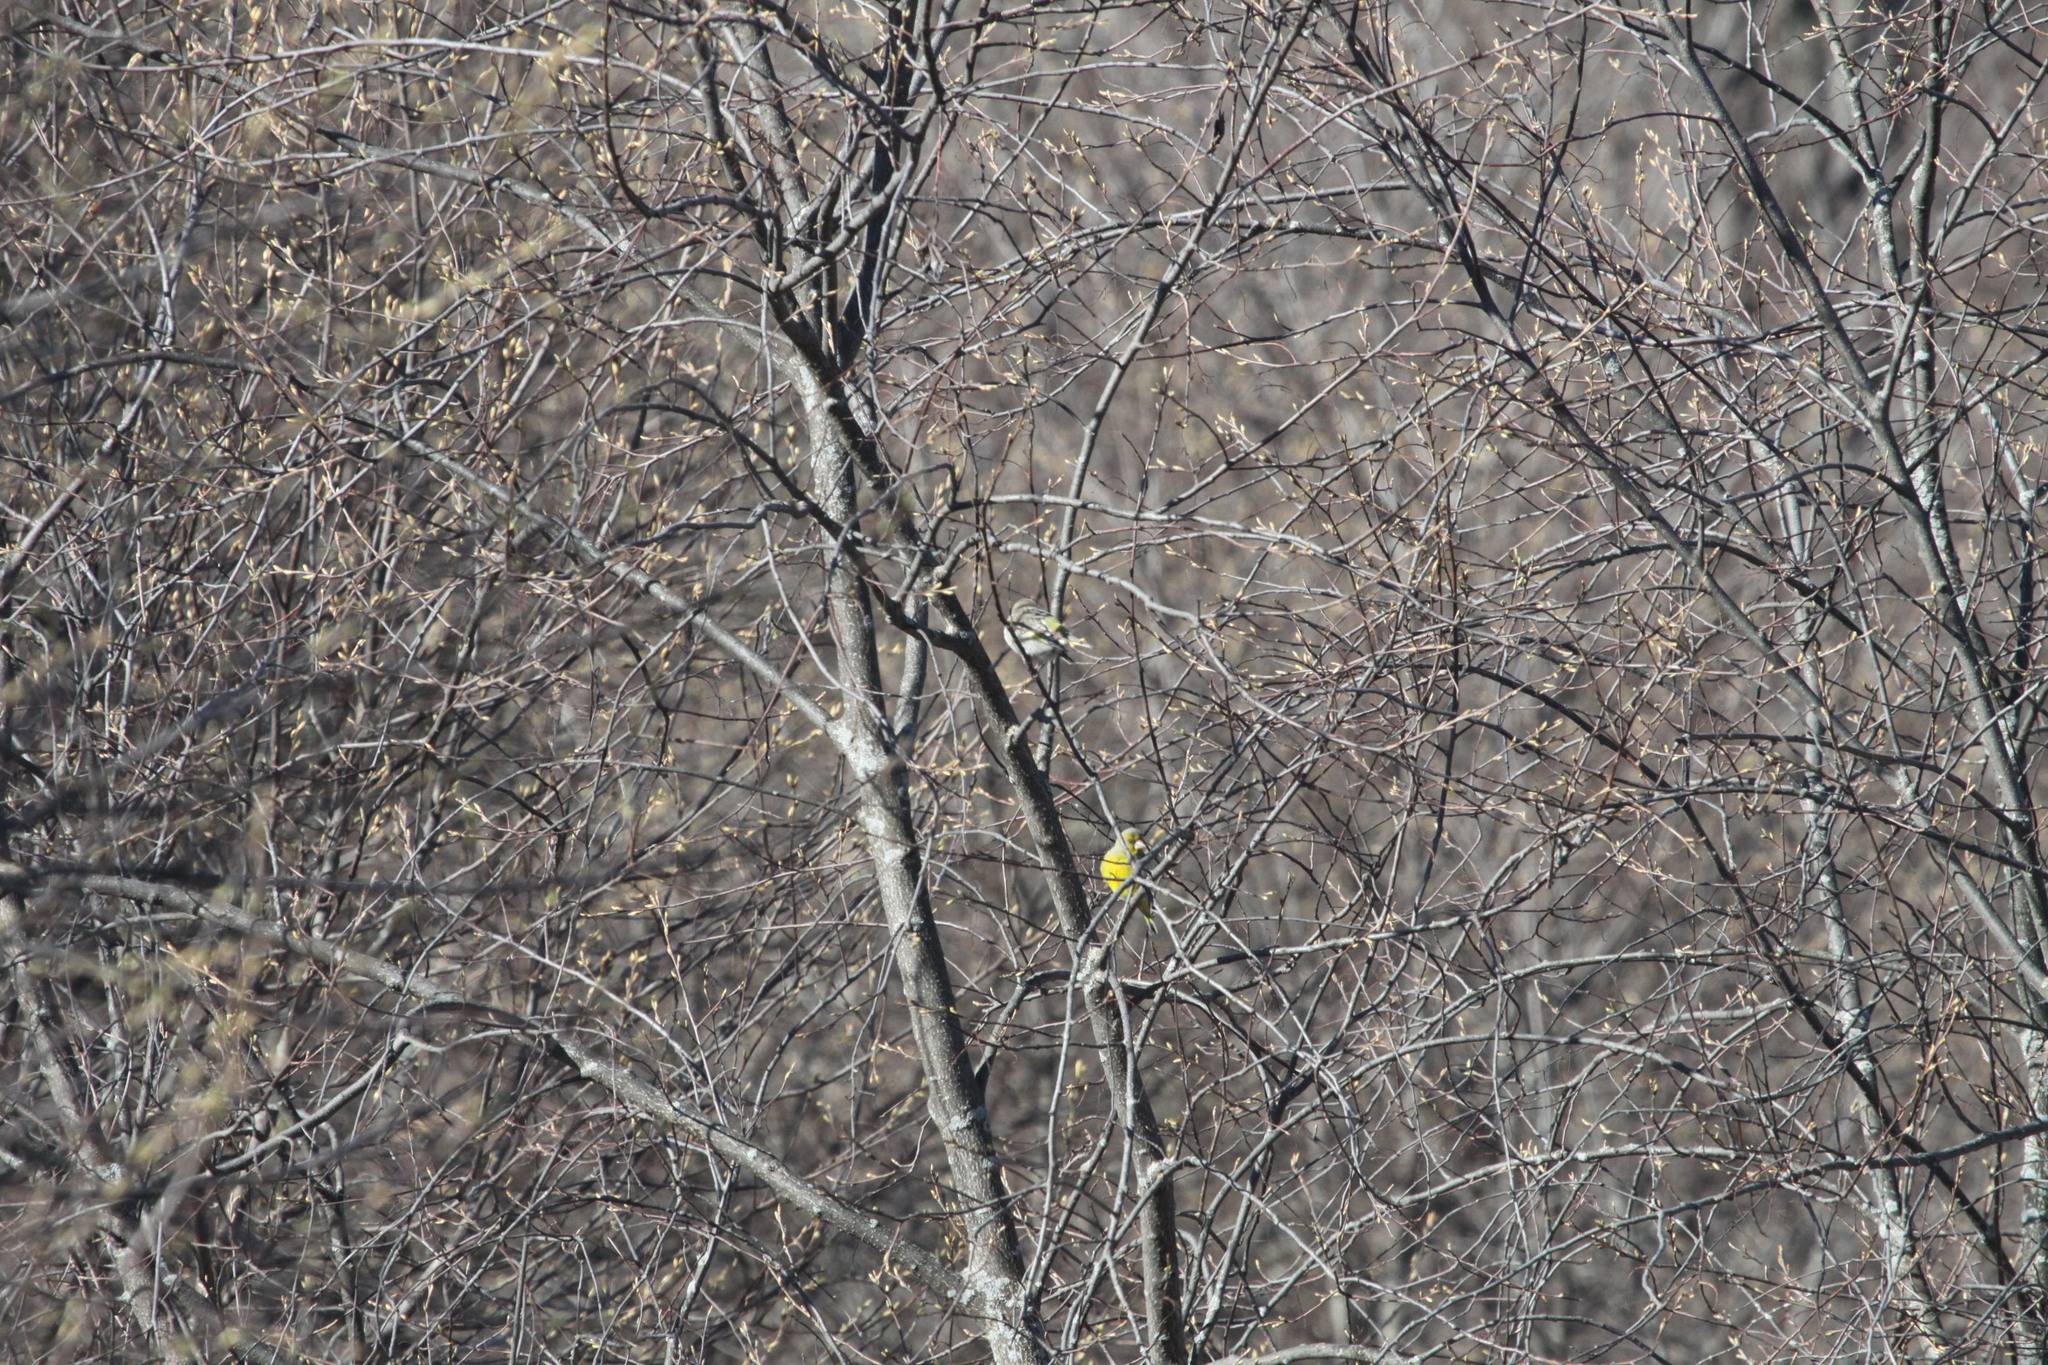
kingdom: Plantae
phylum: Tracheophyta
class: Liliopsida
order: Poales
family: Poaceae
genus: Chloris
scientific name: Chloris chloris
